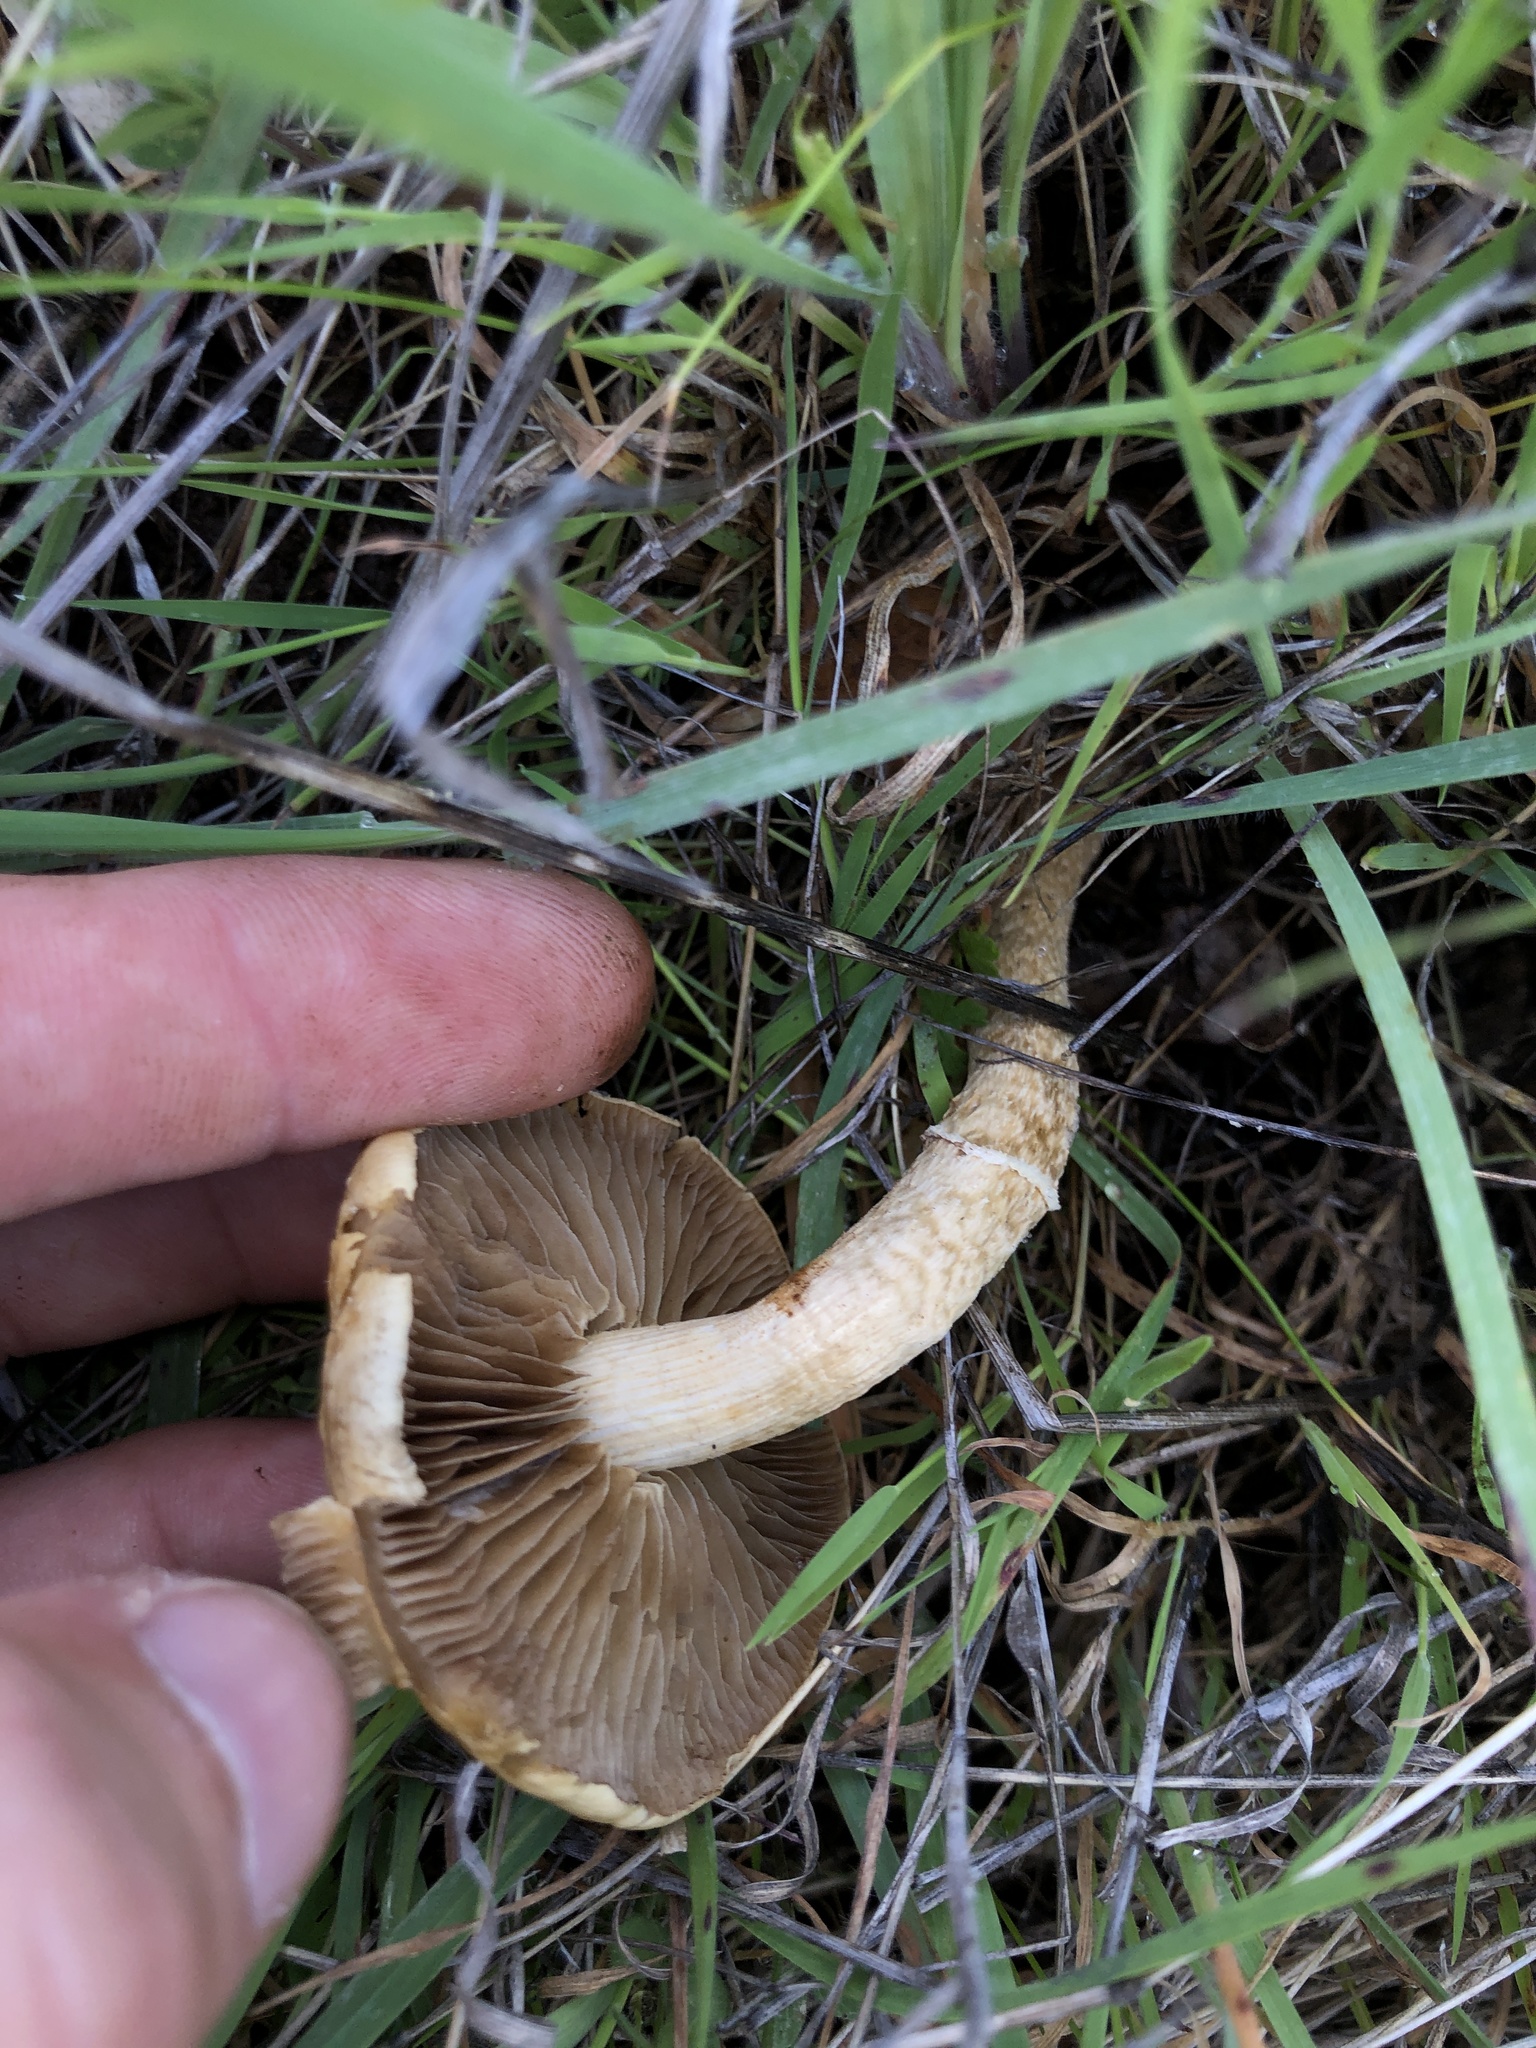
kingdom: Fungi
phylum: Basidiomycota
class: Agaricomycetes
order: Agaricales
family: Strophariaceae
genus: Agrocybe
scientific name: Agrocybe pediades
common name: Common fieldcap
